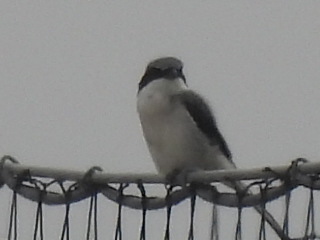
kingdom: Animalia
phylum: Chordata
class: Aves
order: Passeriformes
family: Laniidae
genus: Lanius
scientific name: Lanius ludovicianus
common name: Loggerhead shrike
